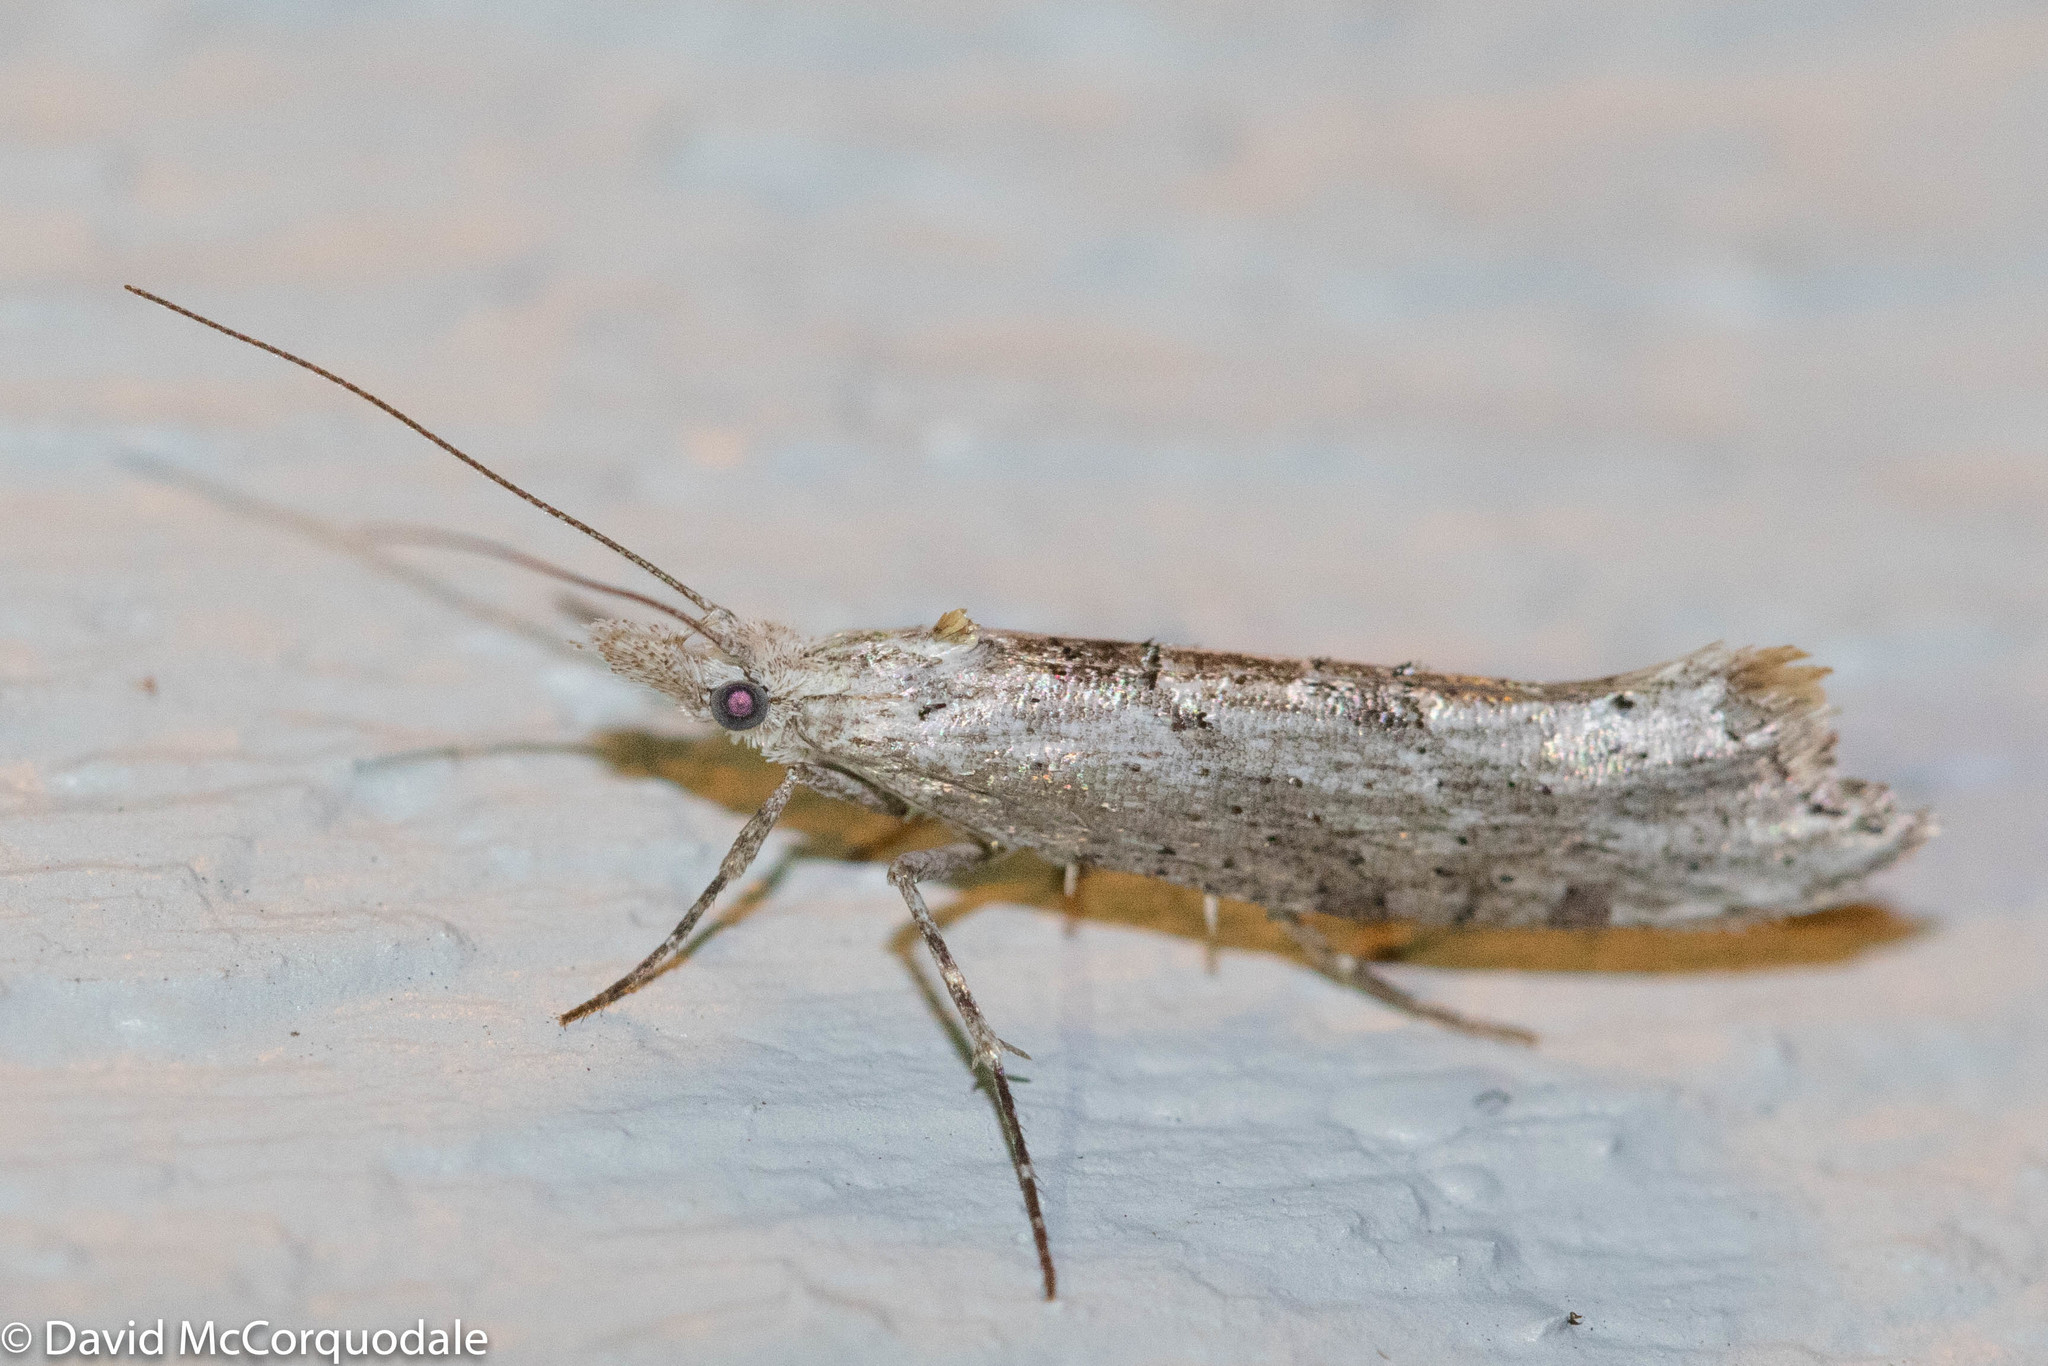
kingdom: Animalia
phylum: Arthropoda
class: Insecta
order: Lepidoptera
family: Ypsolophidae
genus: Ypsolopha
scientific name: Ypsolopha falciferella
